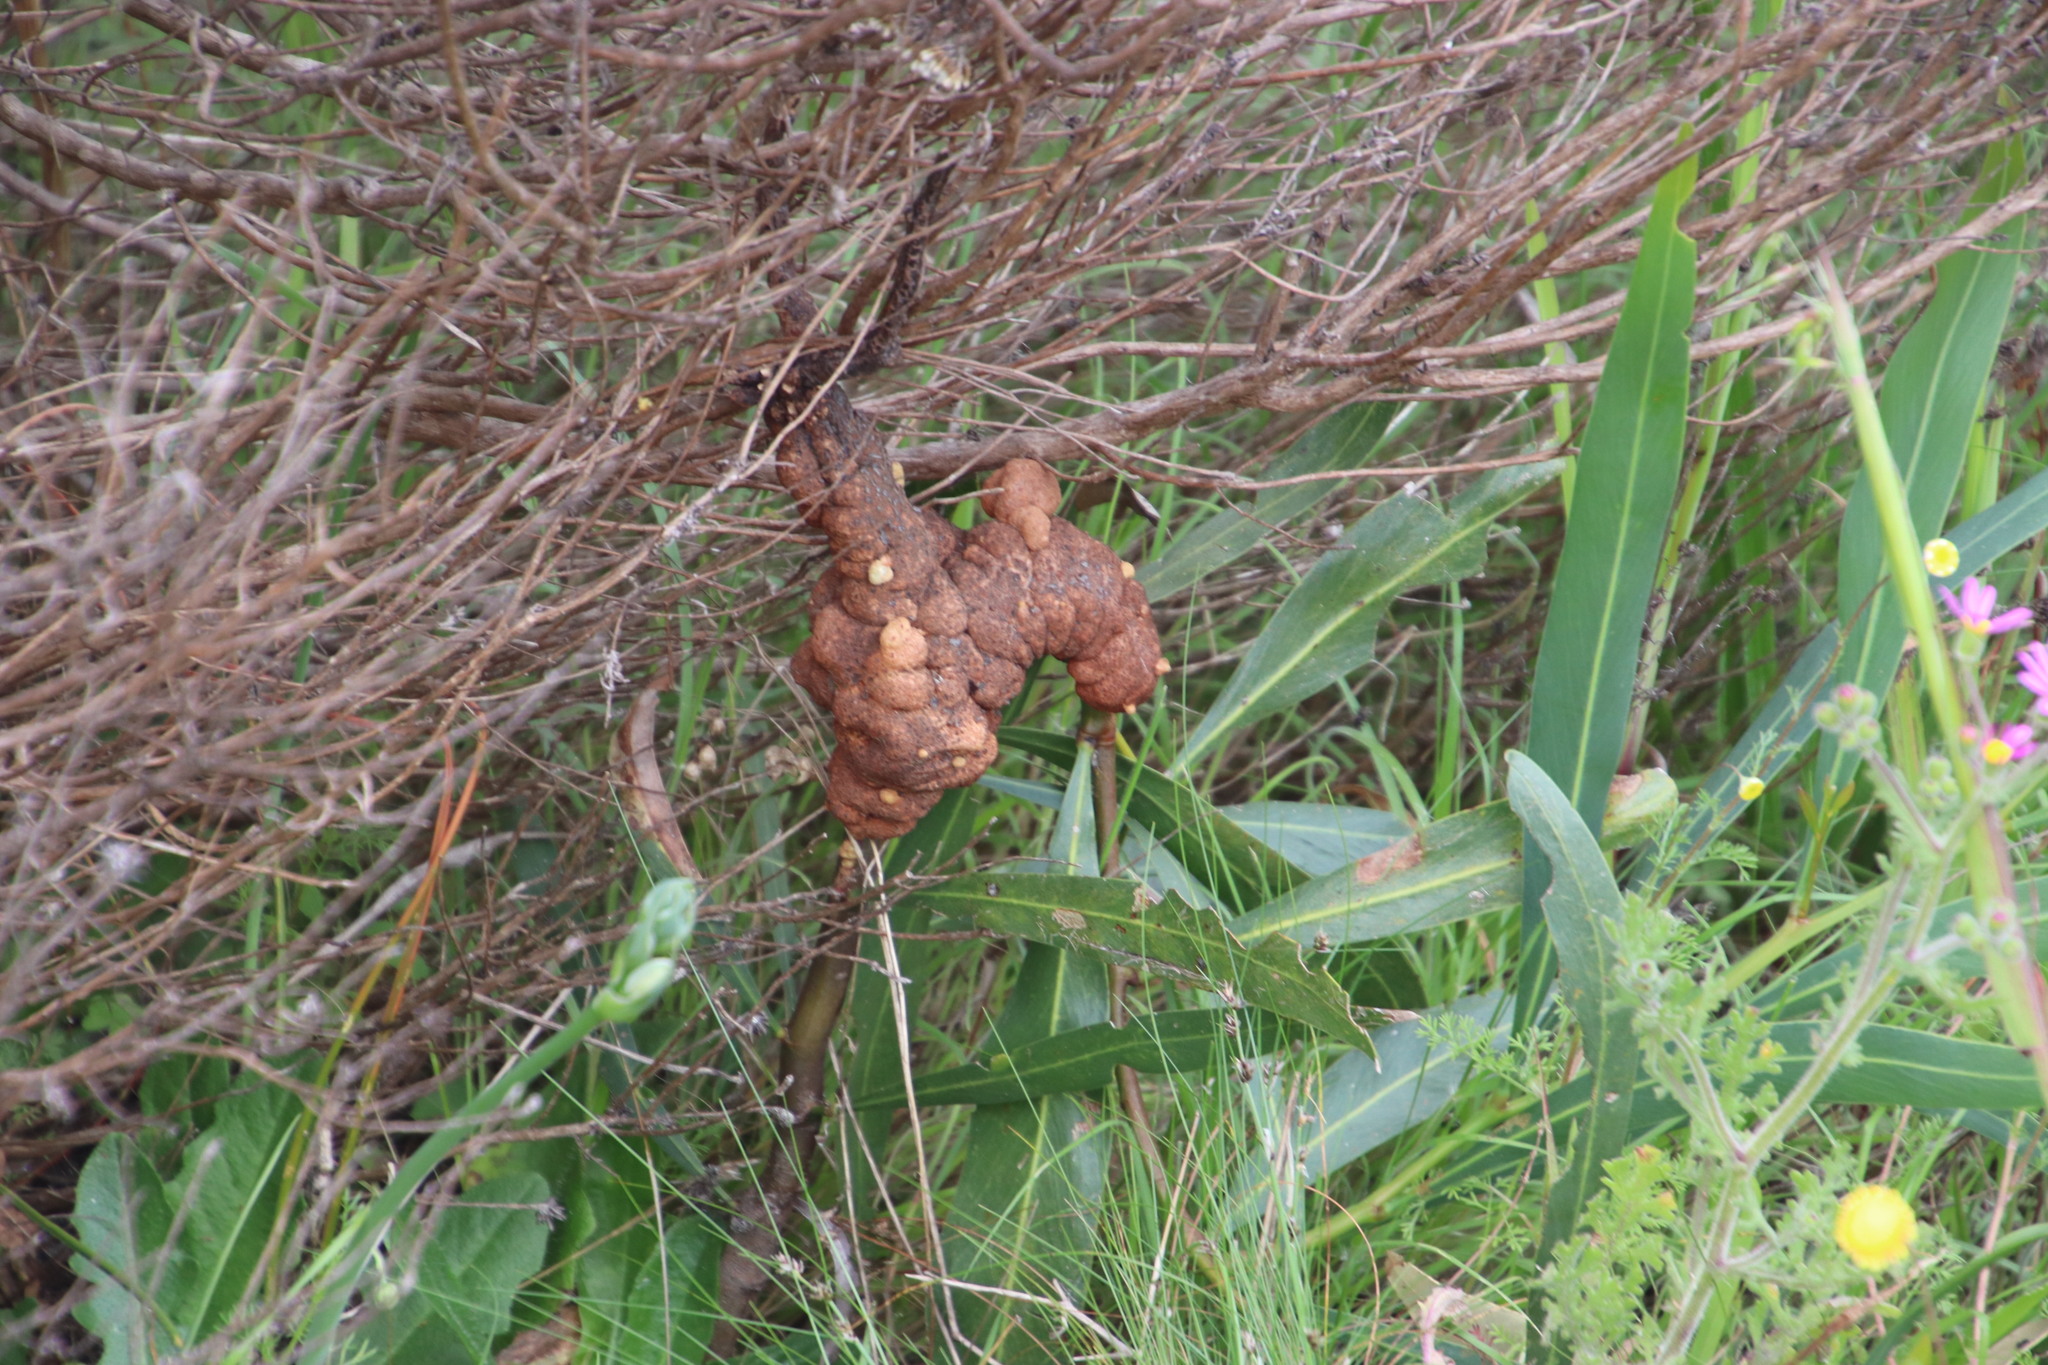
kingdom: Plantae
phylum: Tracheophyta
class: Magnoliopsida
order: Fabales
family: Fabaceae
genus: Acacia
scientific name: Acacia saligna
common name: Orange wattle
